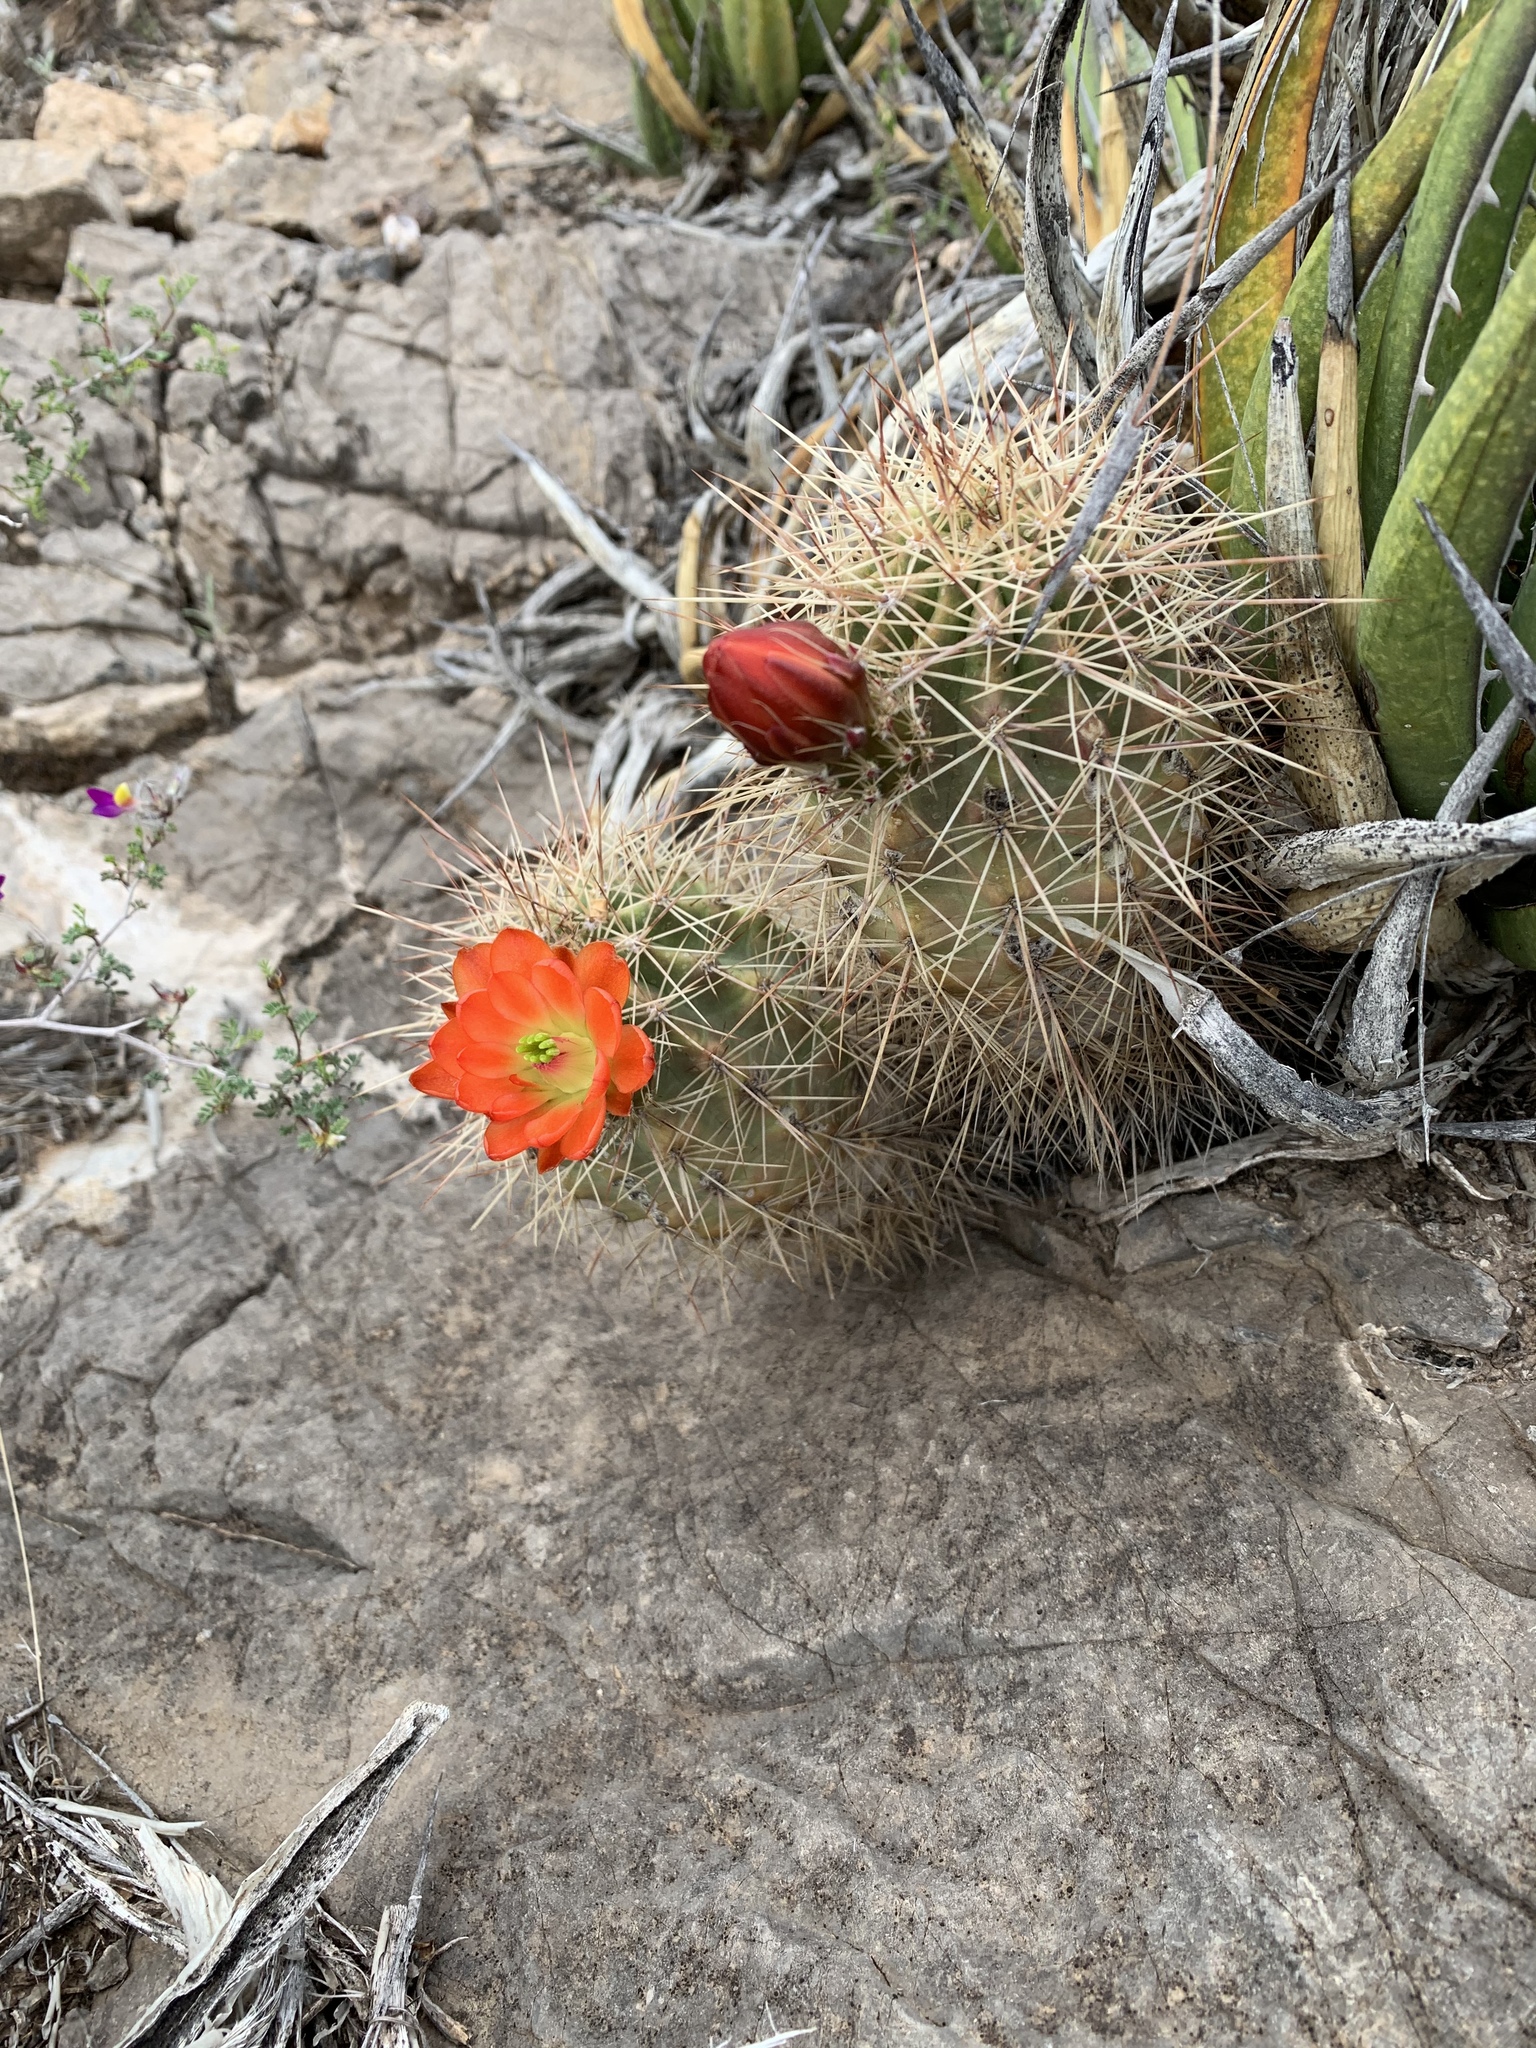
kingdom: Plantae
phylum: Tracheophyta
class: Magnoliopsida
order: Caryophyllales
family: Cactaceae
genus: Echinocereus
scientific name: Echinocereus coccineus
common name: Scarlet hedgehog cactus
